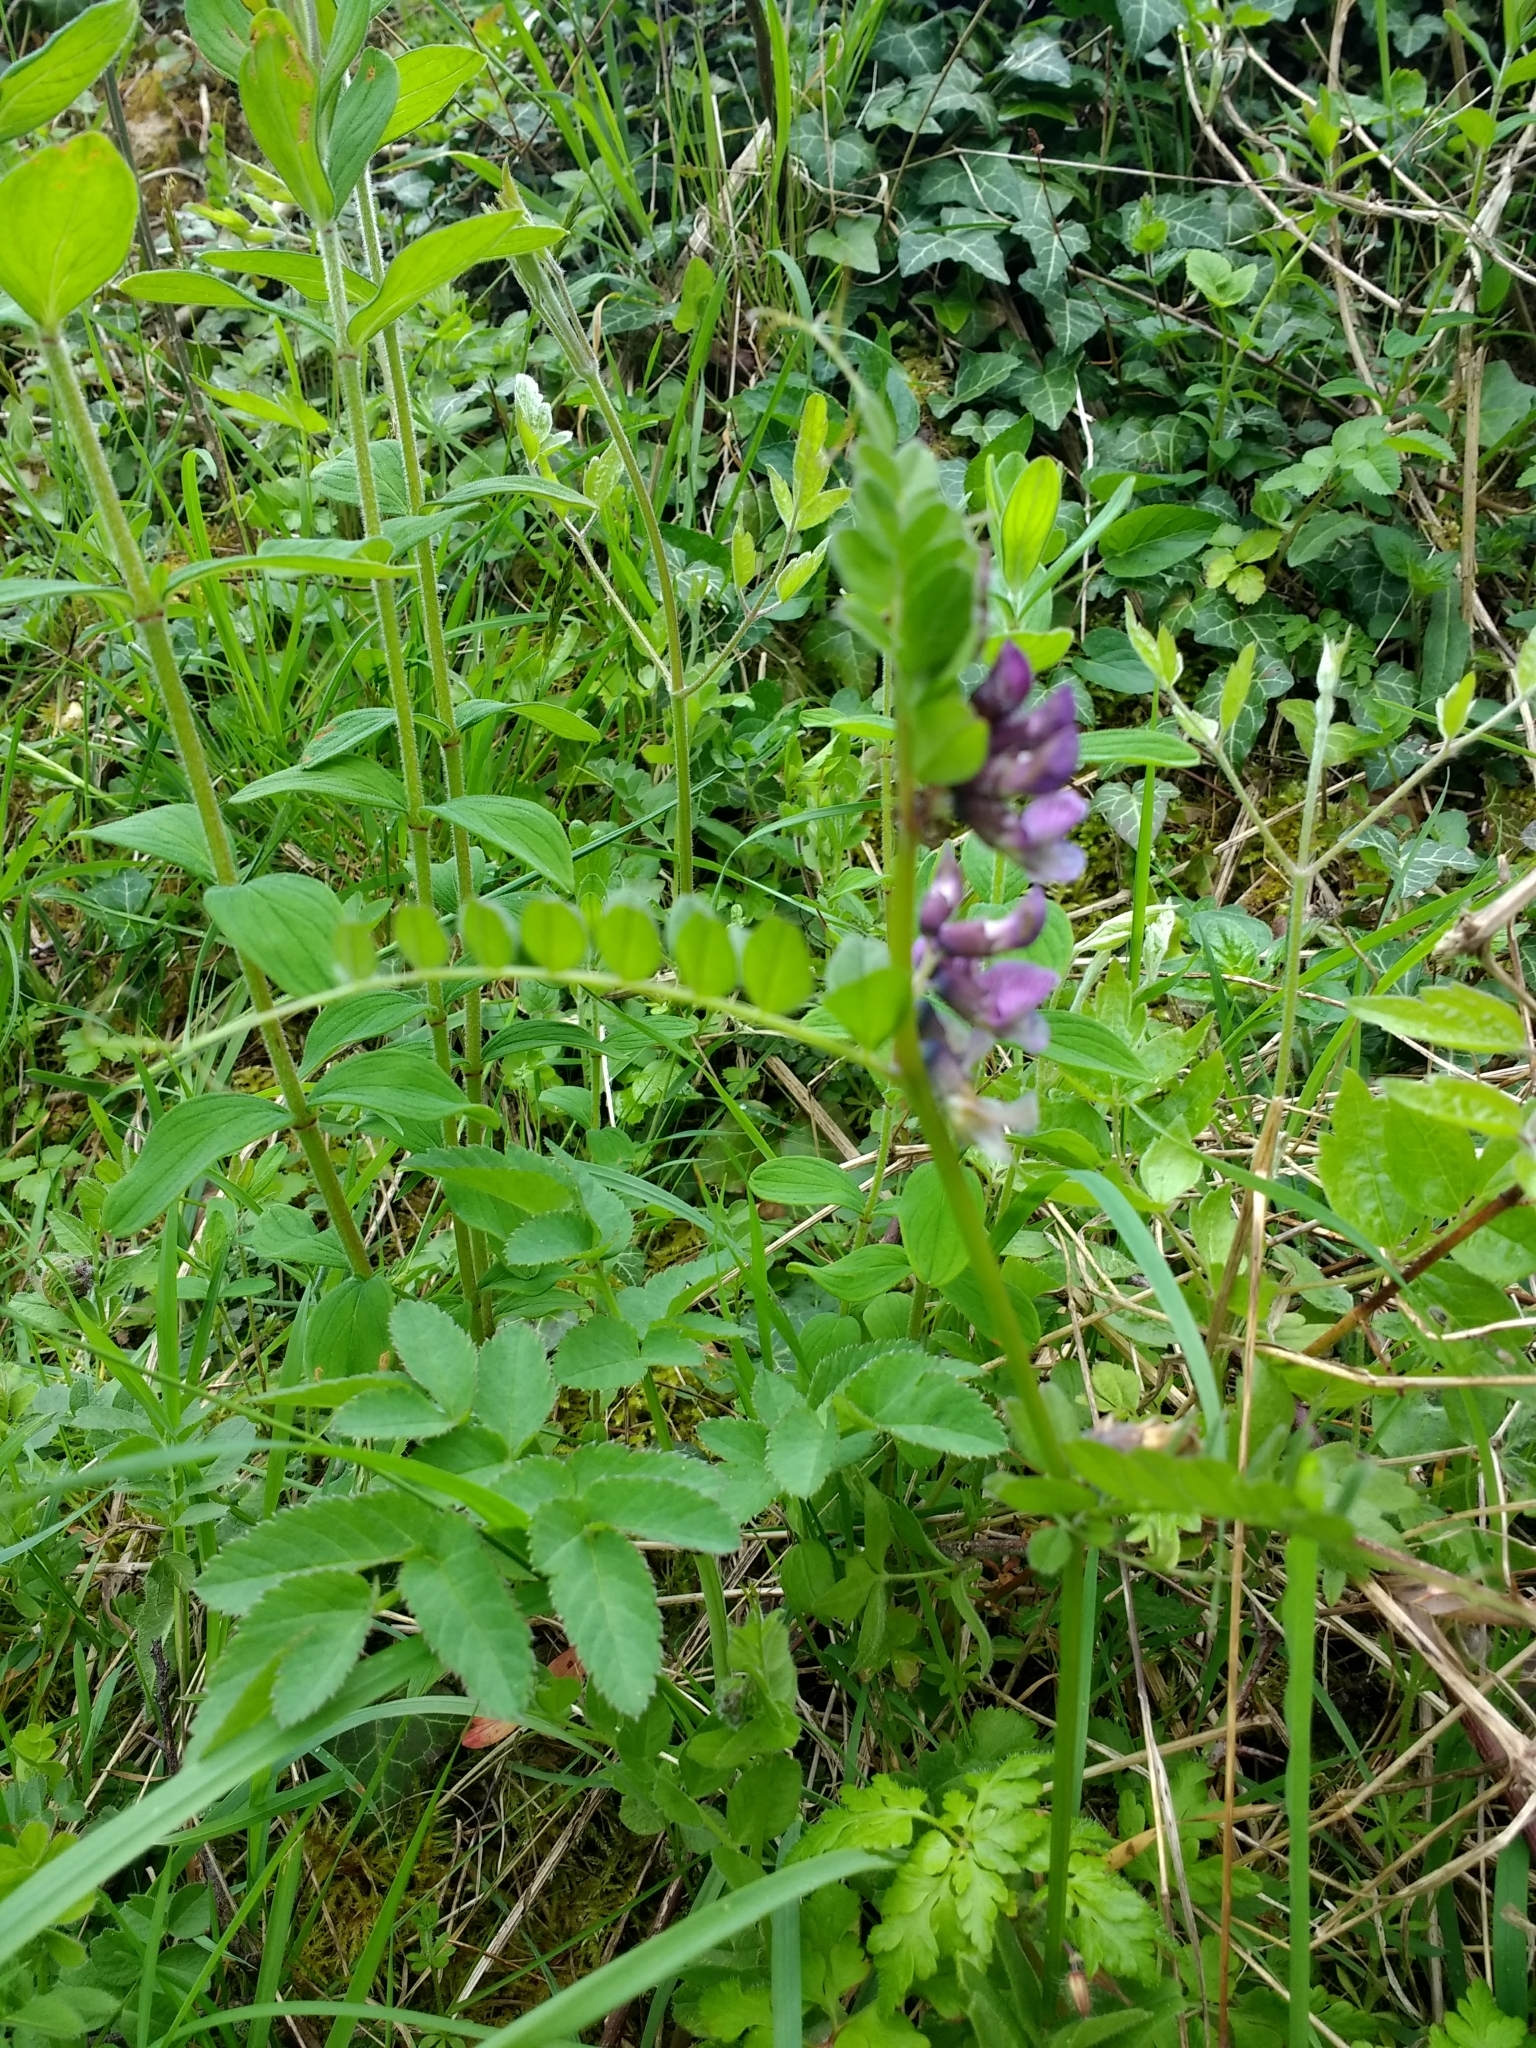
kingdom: Plantae
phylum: Tracheophyta
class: Magnoliopsida
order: Fabales
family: Fabaceae
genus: Vicia
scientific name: Vicia sepium
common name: Bush vetch
